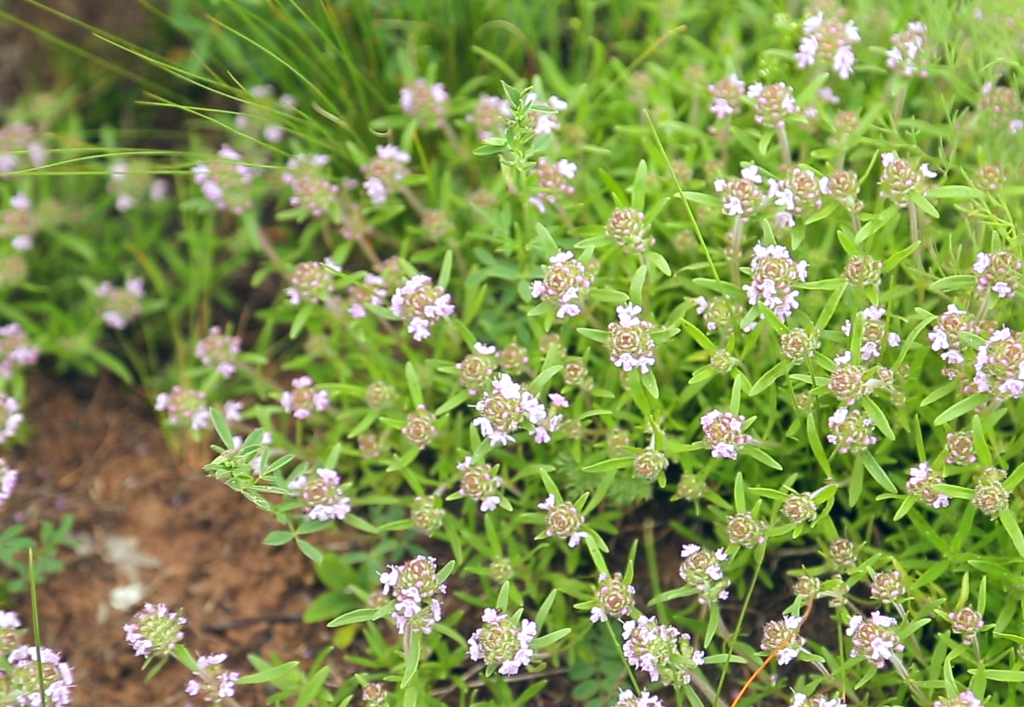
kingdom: Plantae
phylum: Tracheophyta
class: Magnoliopsida
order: Lamiales
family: Lamiaceae
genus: Thymus
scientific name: Thymus dimorphus
